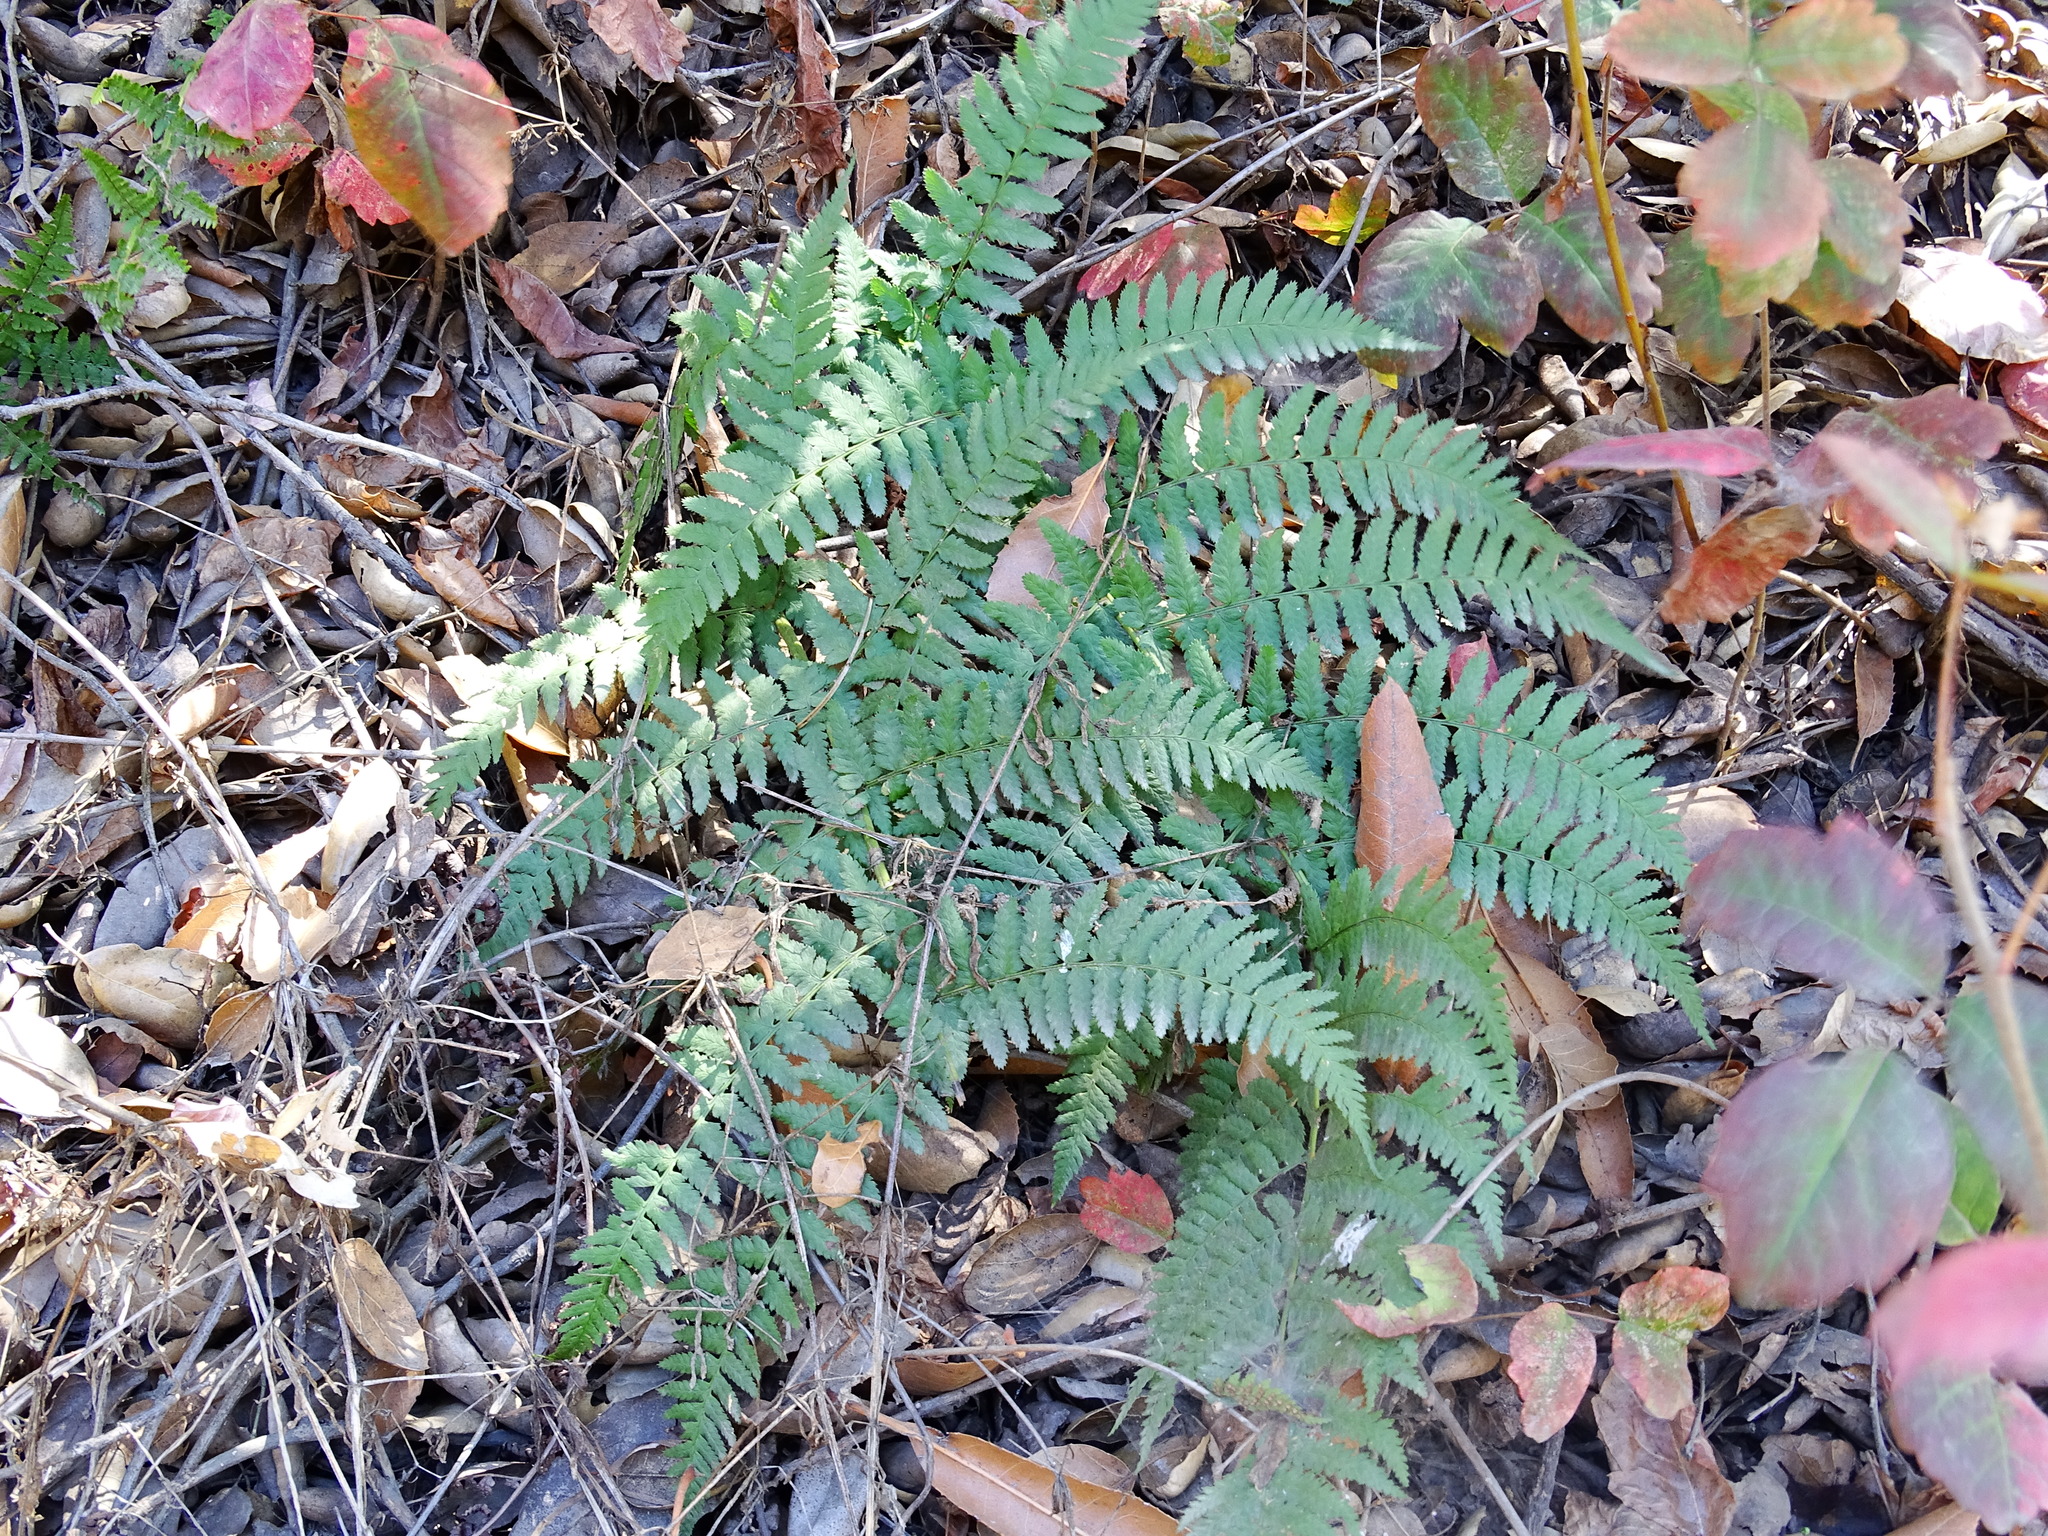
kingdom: Plantae
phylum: Tracheophyta
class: Polypodiopsida
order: Polypodiales
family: Dryopteridaceae
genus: Dryopteris
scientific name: Dryopteris arguta
